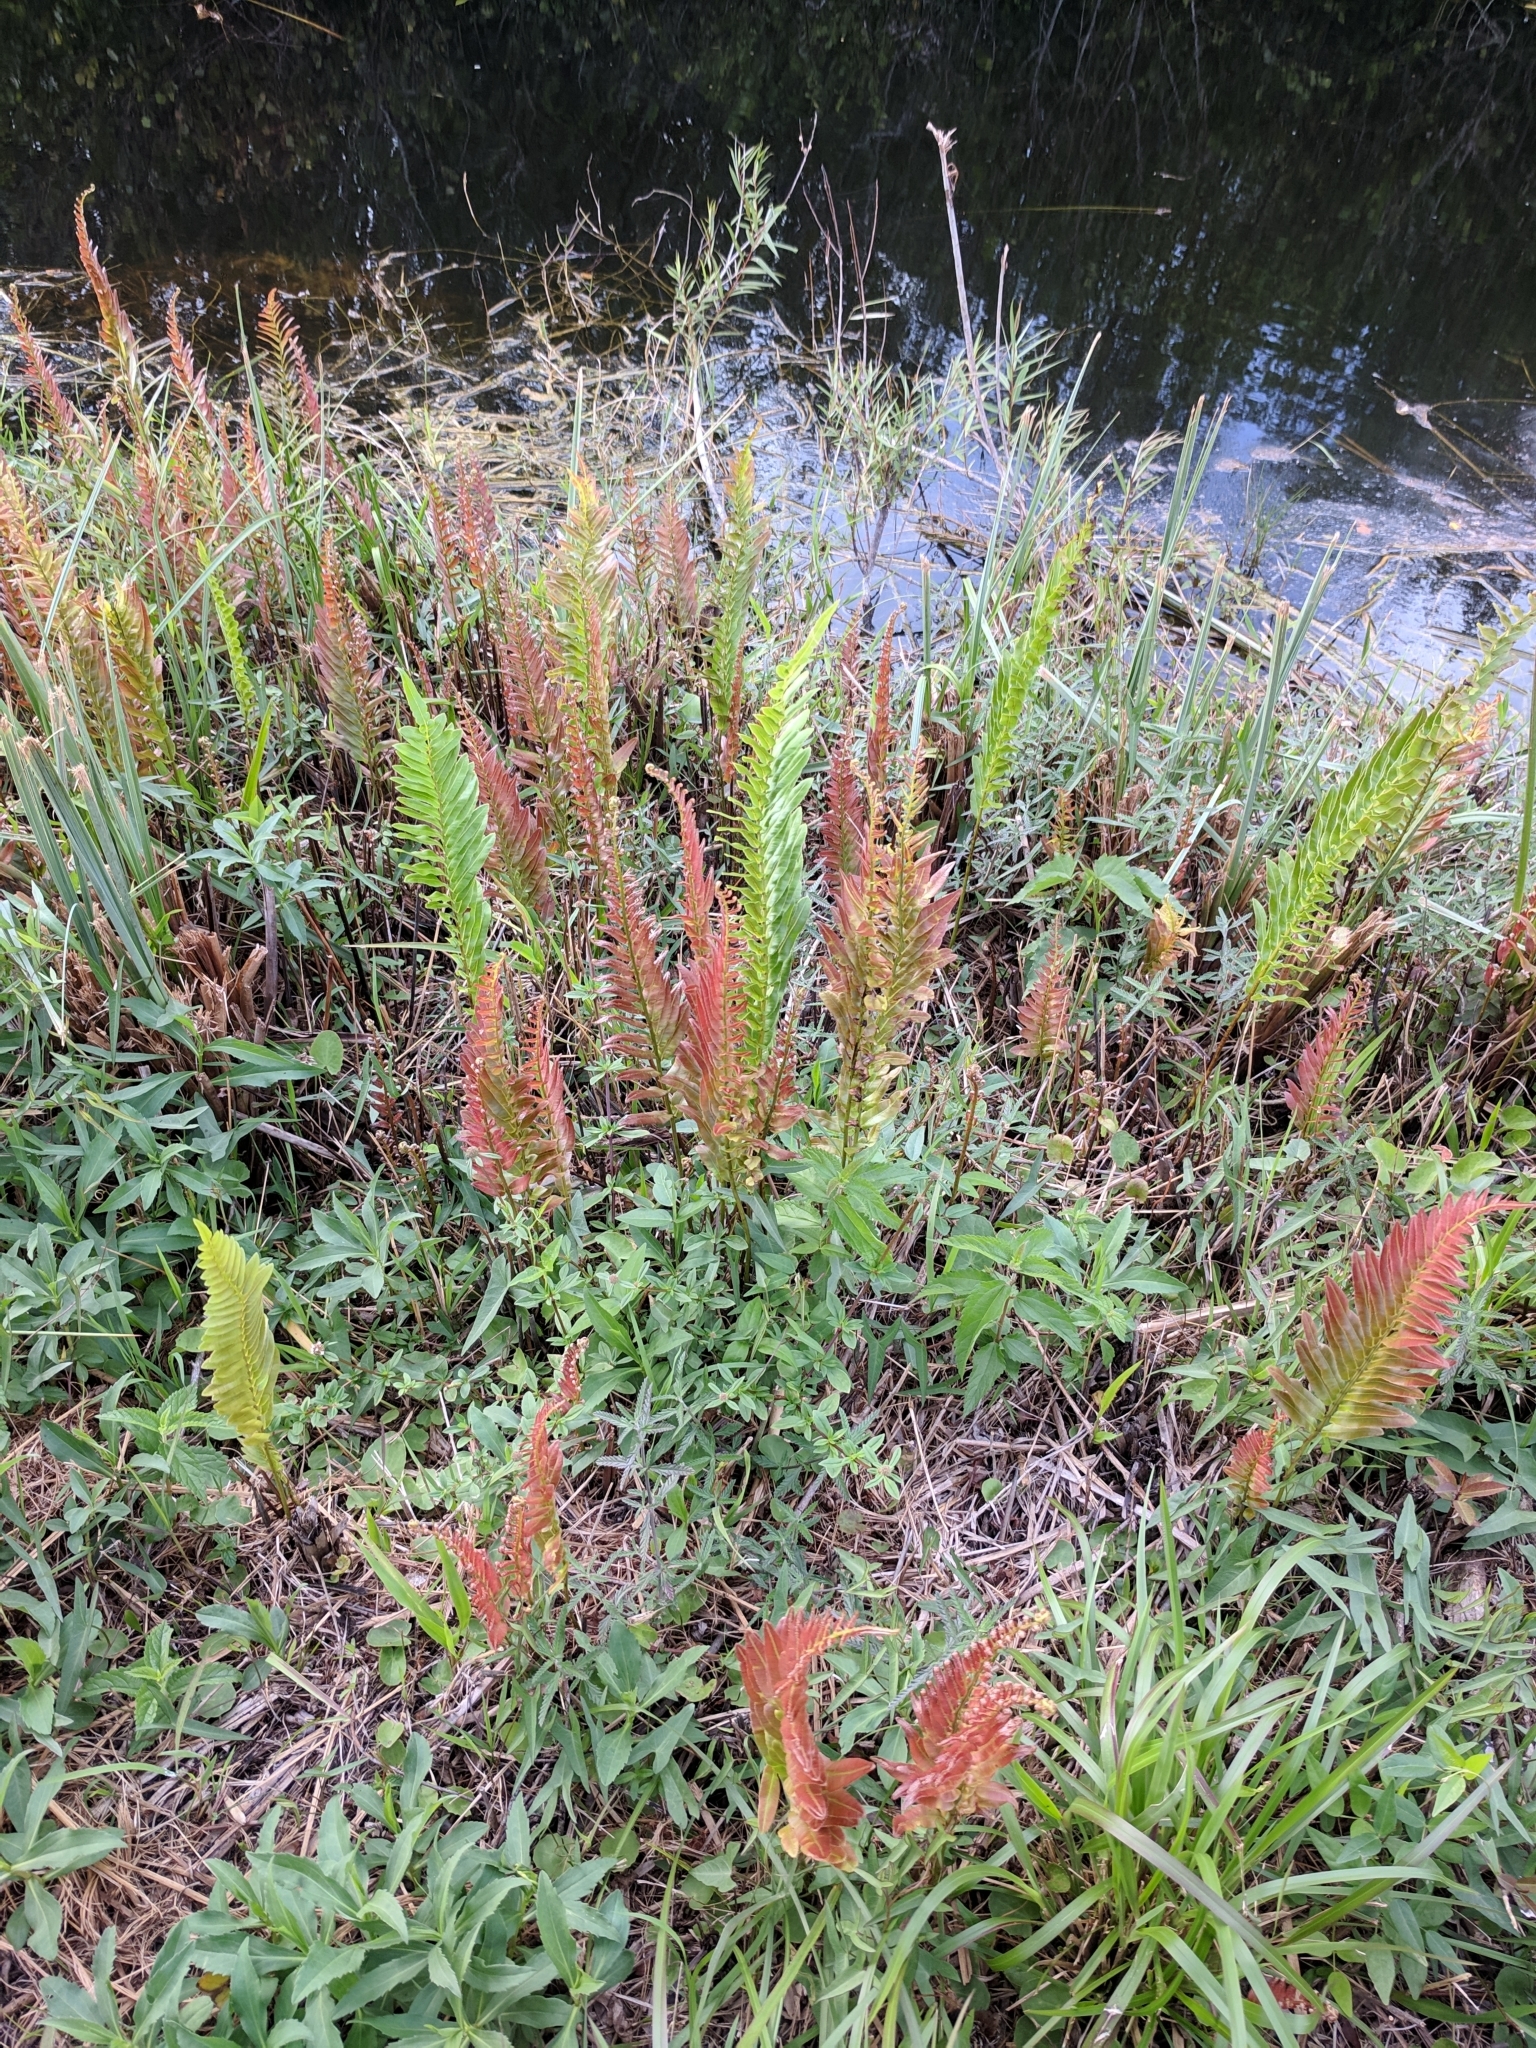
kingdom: Plantae
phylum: Tracheophyta
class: Polypodiopsida
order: Polypodiales
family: Blechnaceae
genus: Telmatoblechnum
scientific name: Telmatoblechnum serrulatum
